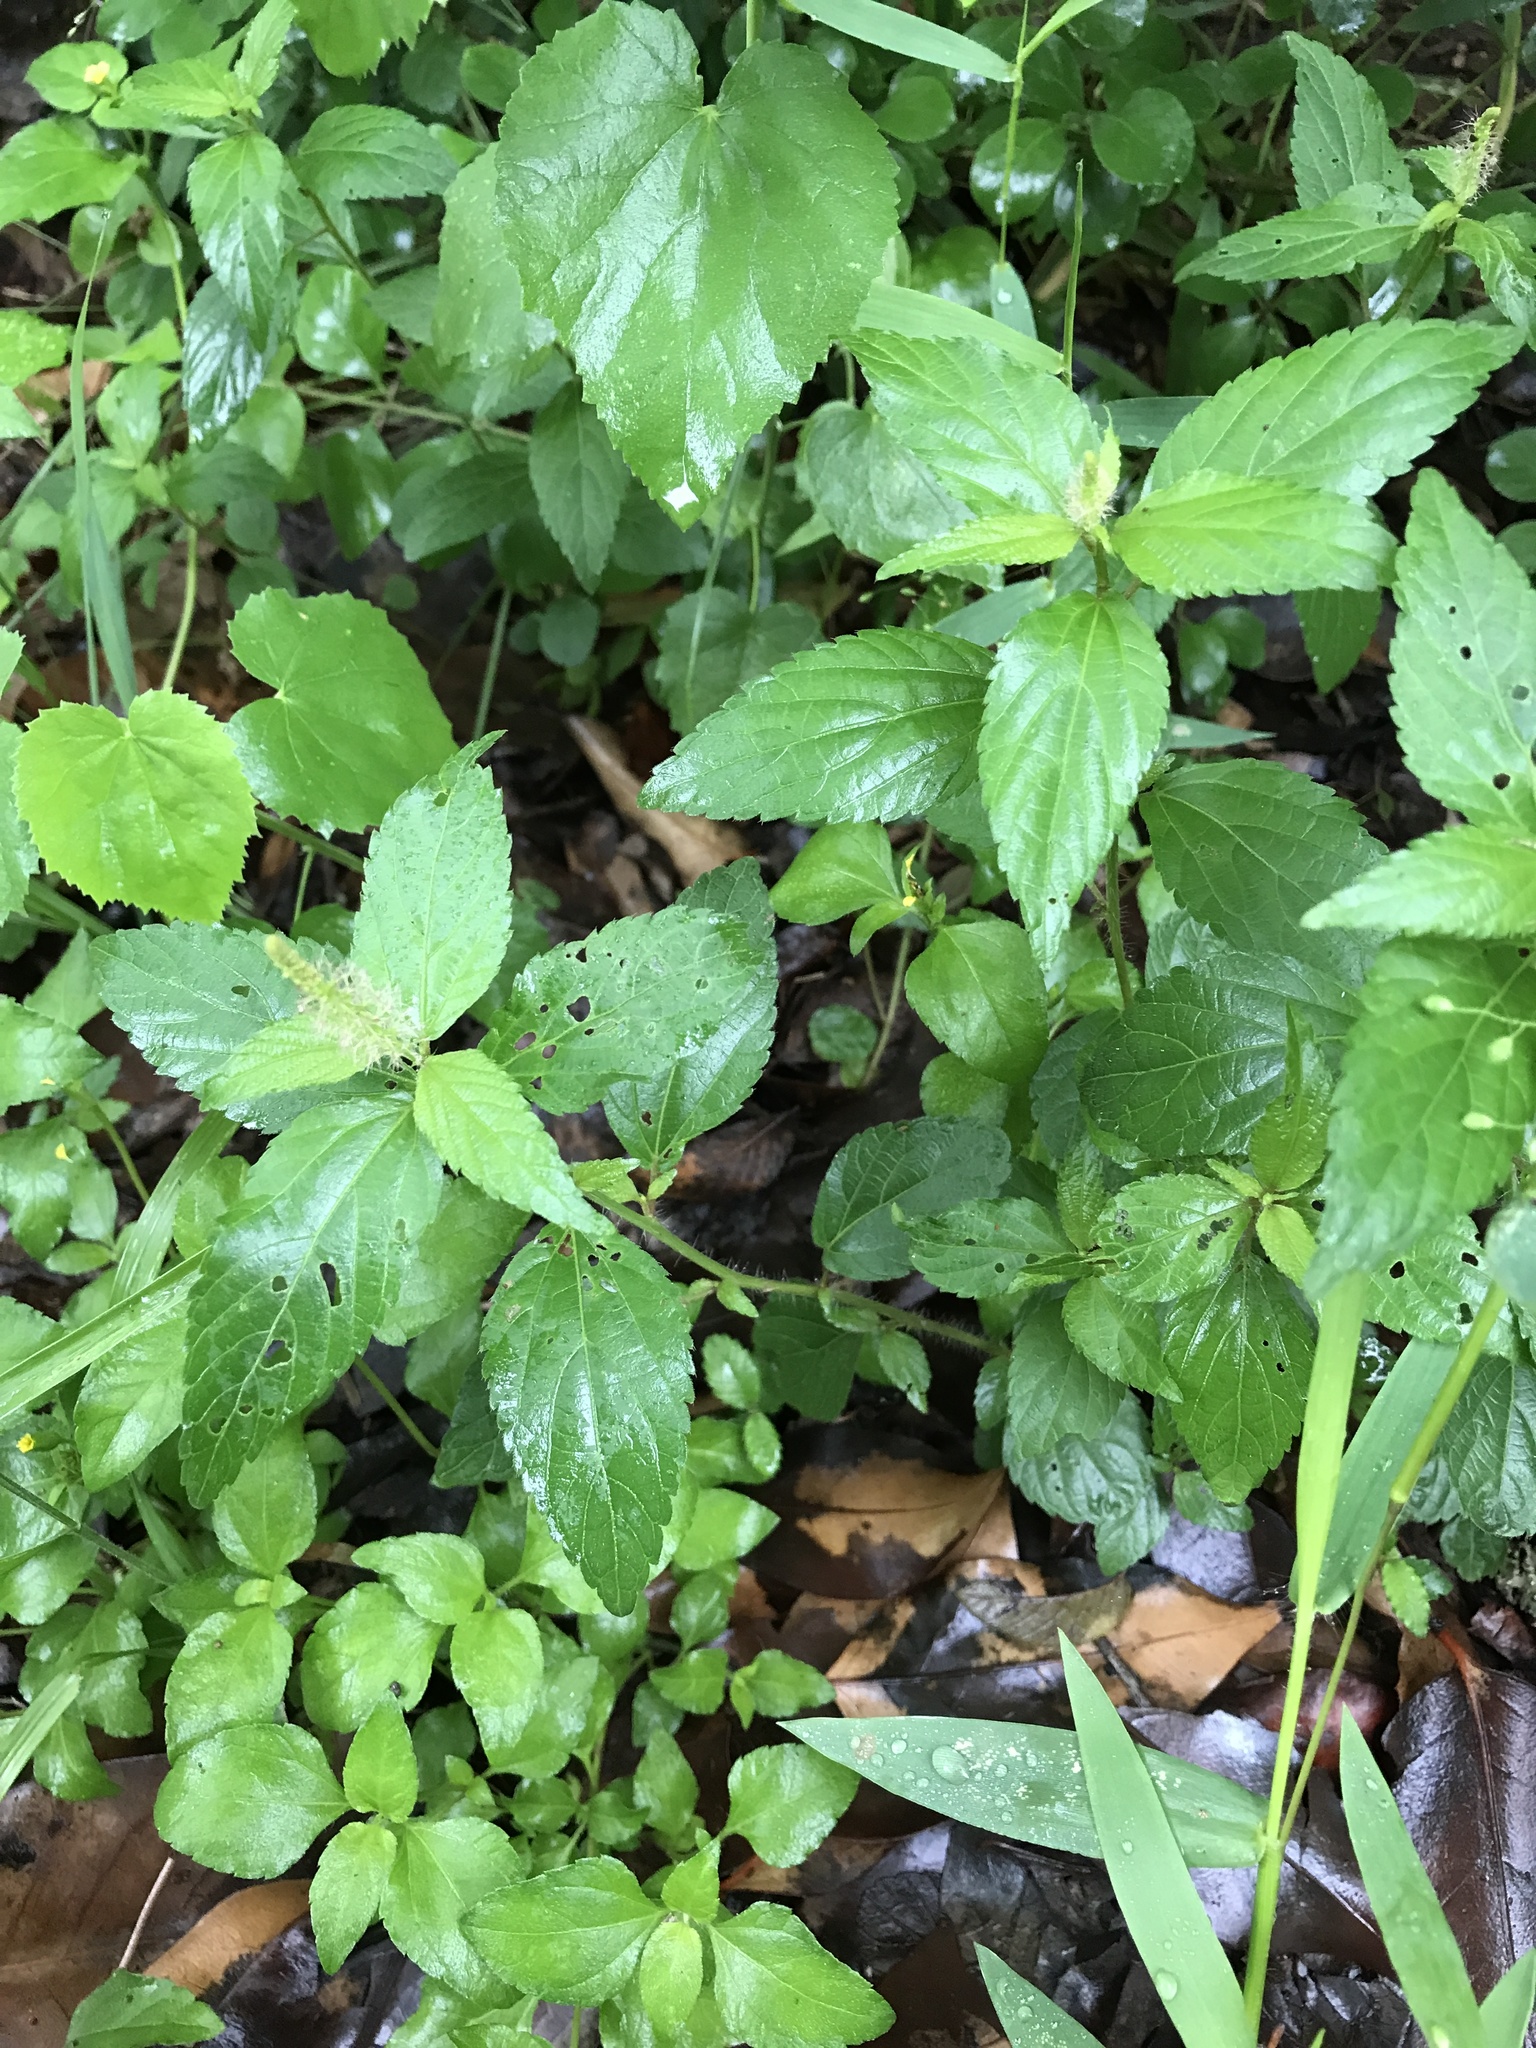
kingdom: Plantae
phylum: Tracheophyta
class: Magnoliopsida
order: Malpighiales
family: Euphorbiaceae
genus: Acalypha
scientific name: Acalypha phleoides
